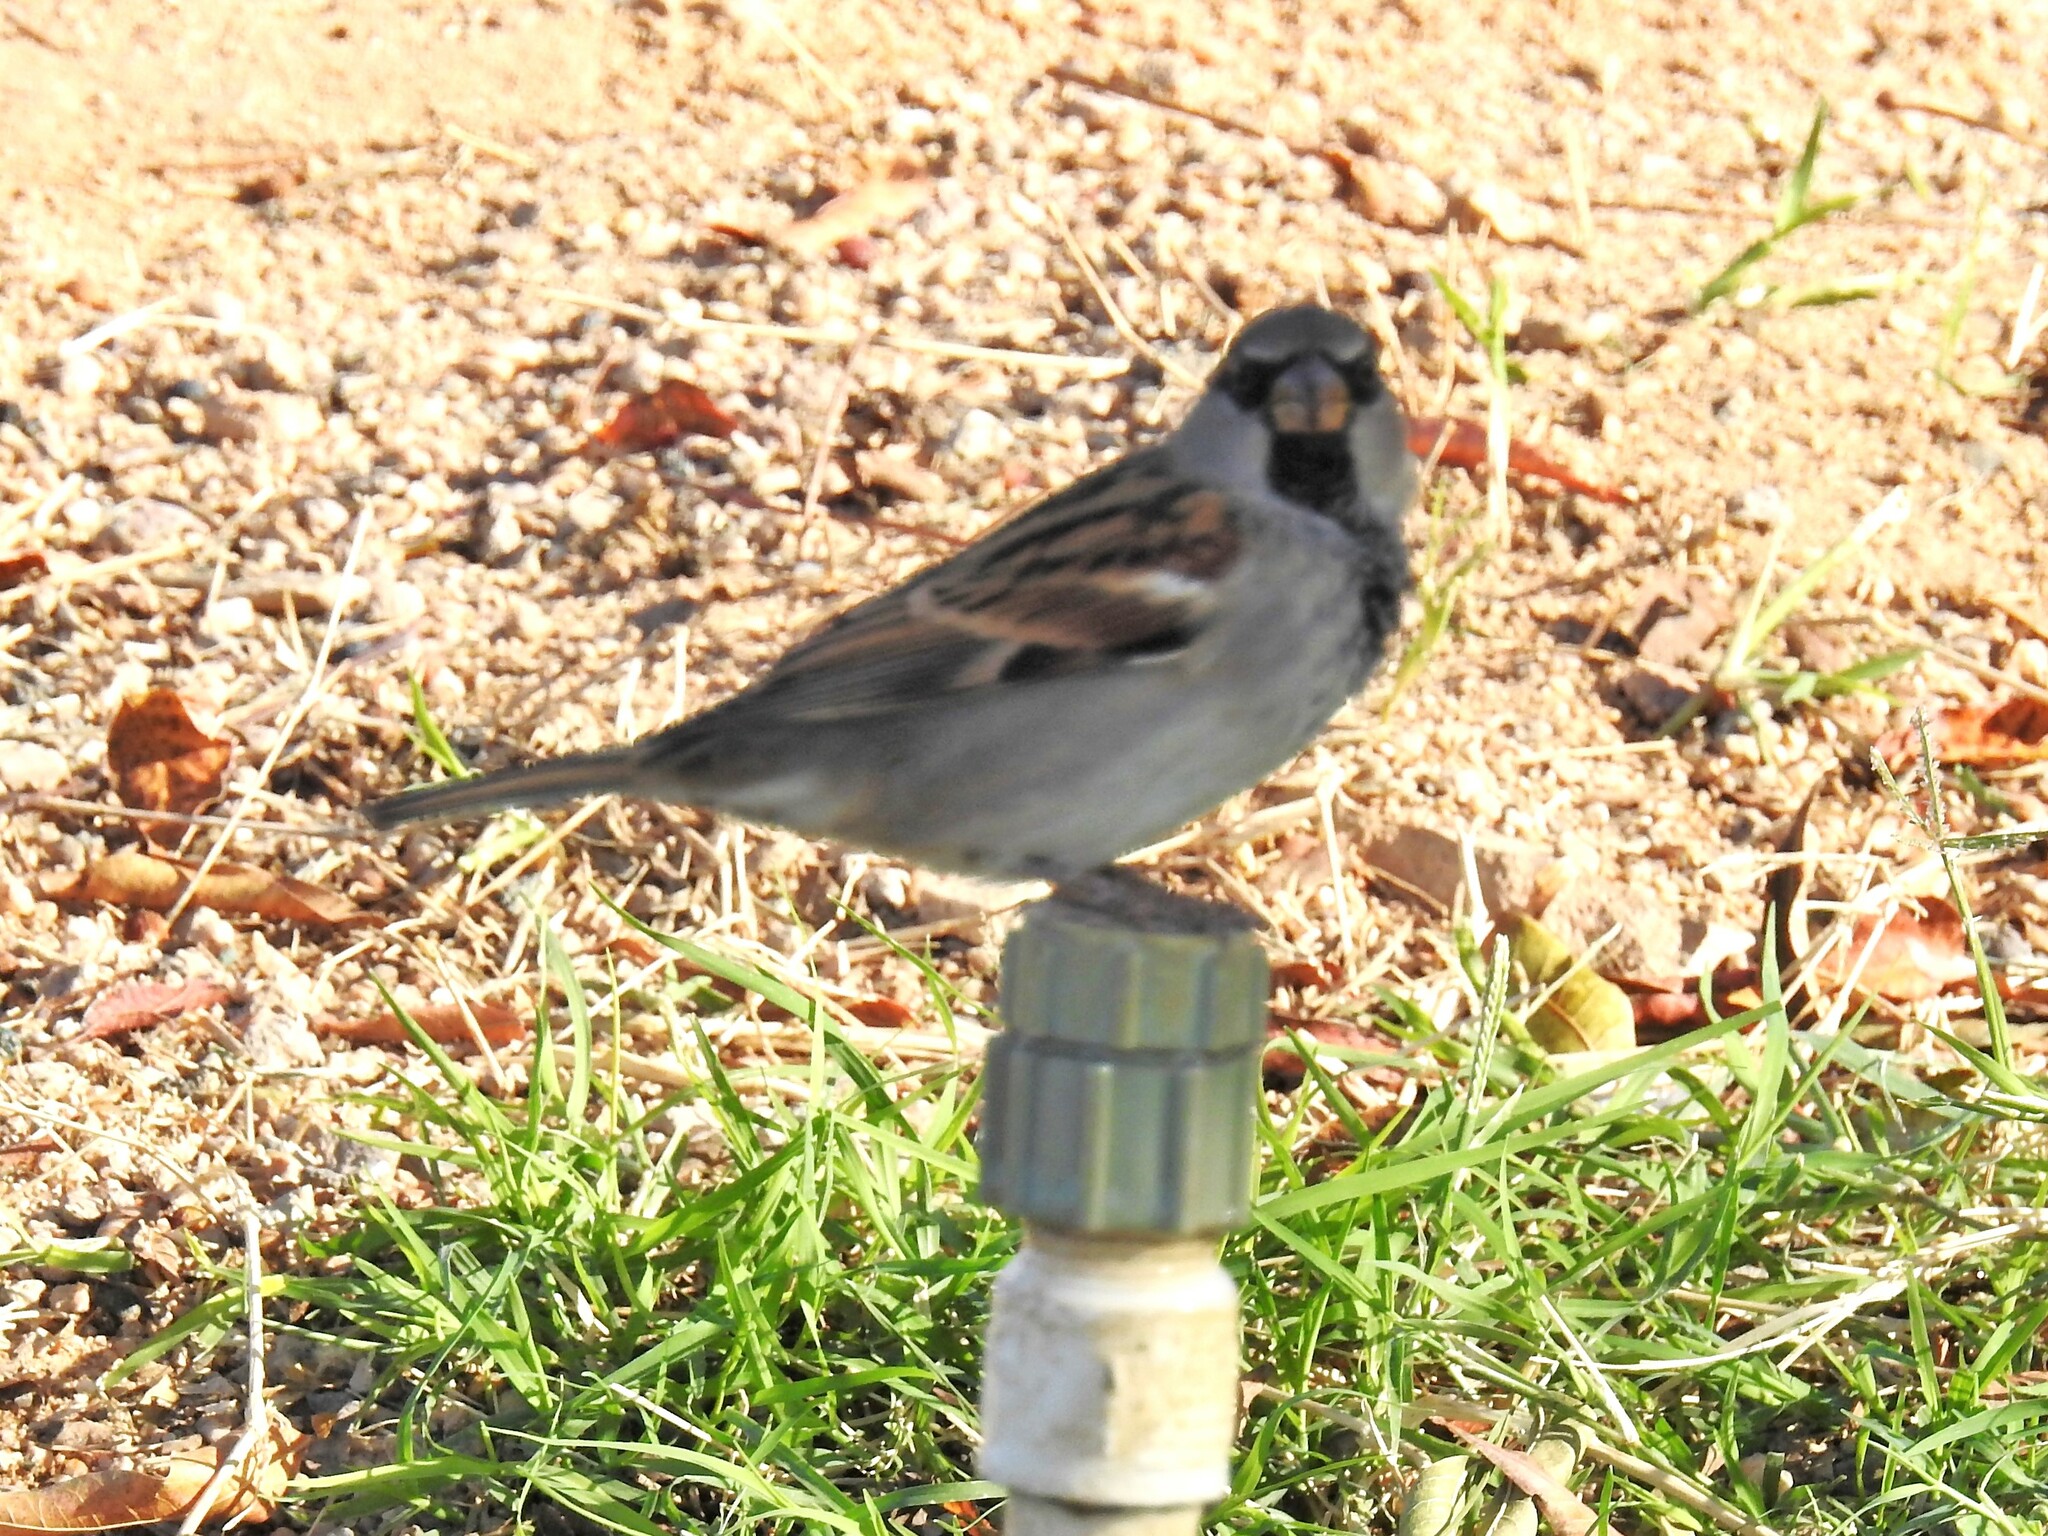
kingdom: Animalia
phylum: Chordata
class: Aves
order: Passeriformes
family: Passeridae
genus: Passer
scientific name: Passer domesticus
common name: House sparrow
